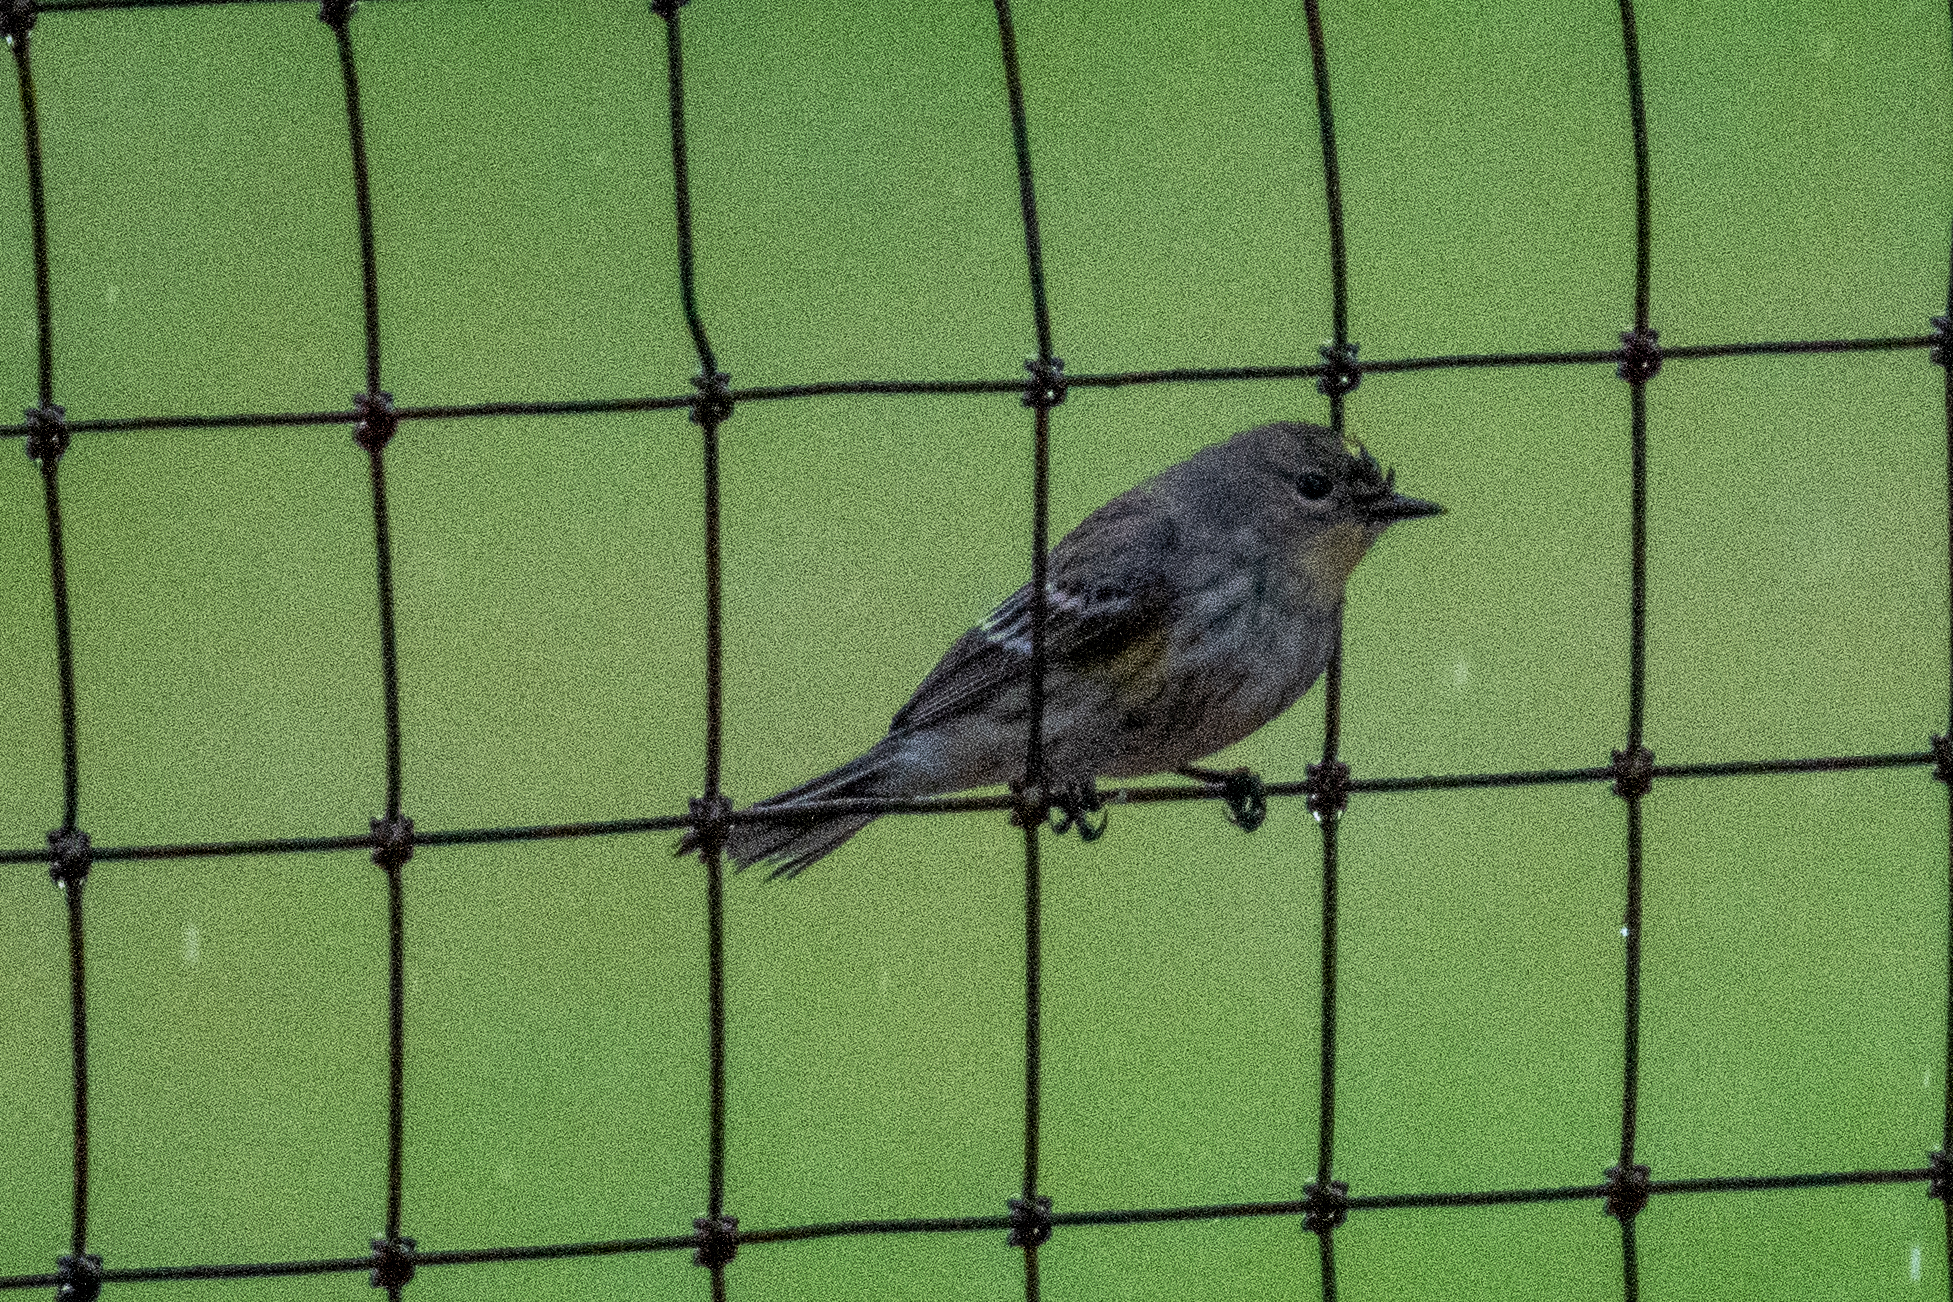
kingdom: Animalia
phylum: Chordata
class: Aves
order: Passeriformes
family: Parulidae
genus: Setophaga
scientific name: Setophaga coronata
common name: Myrtle warbler
